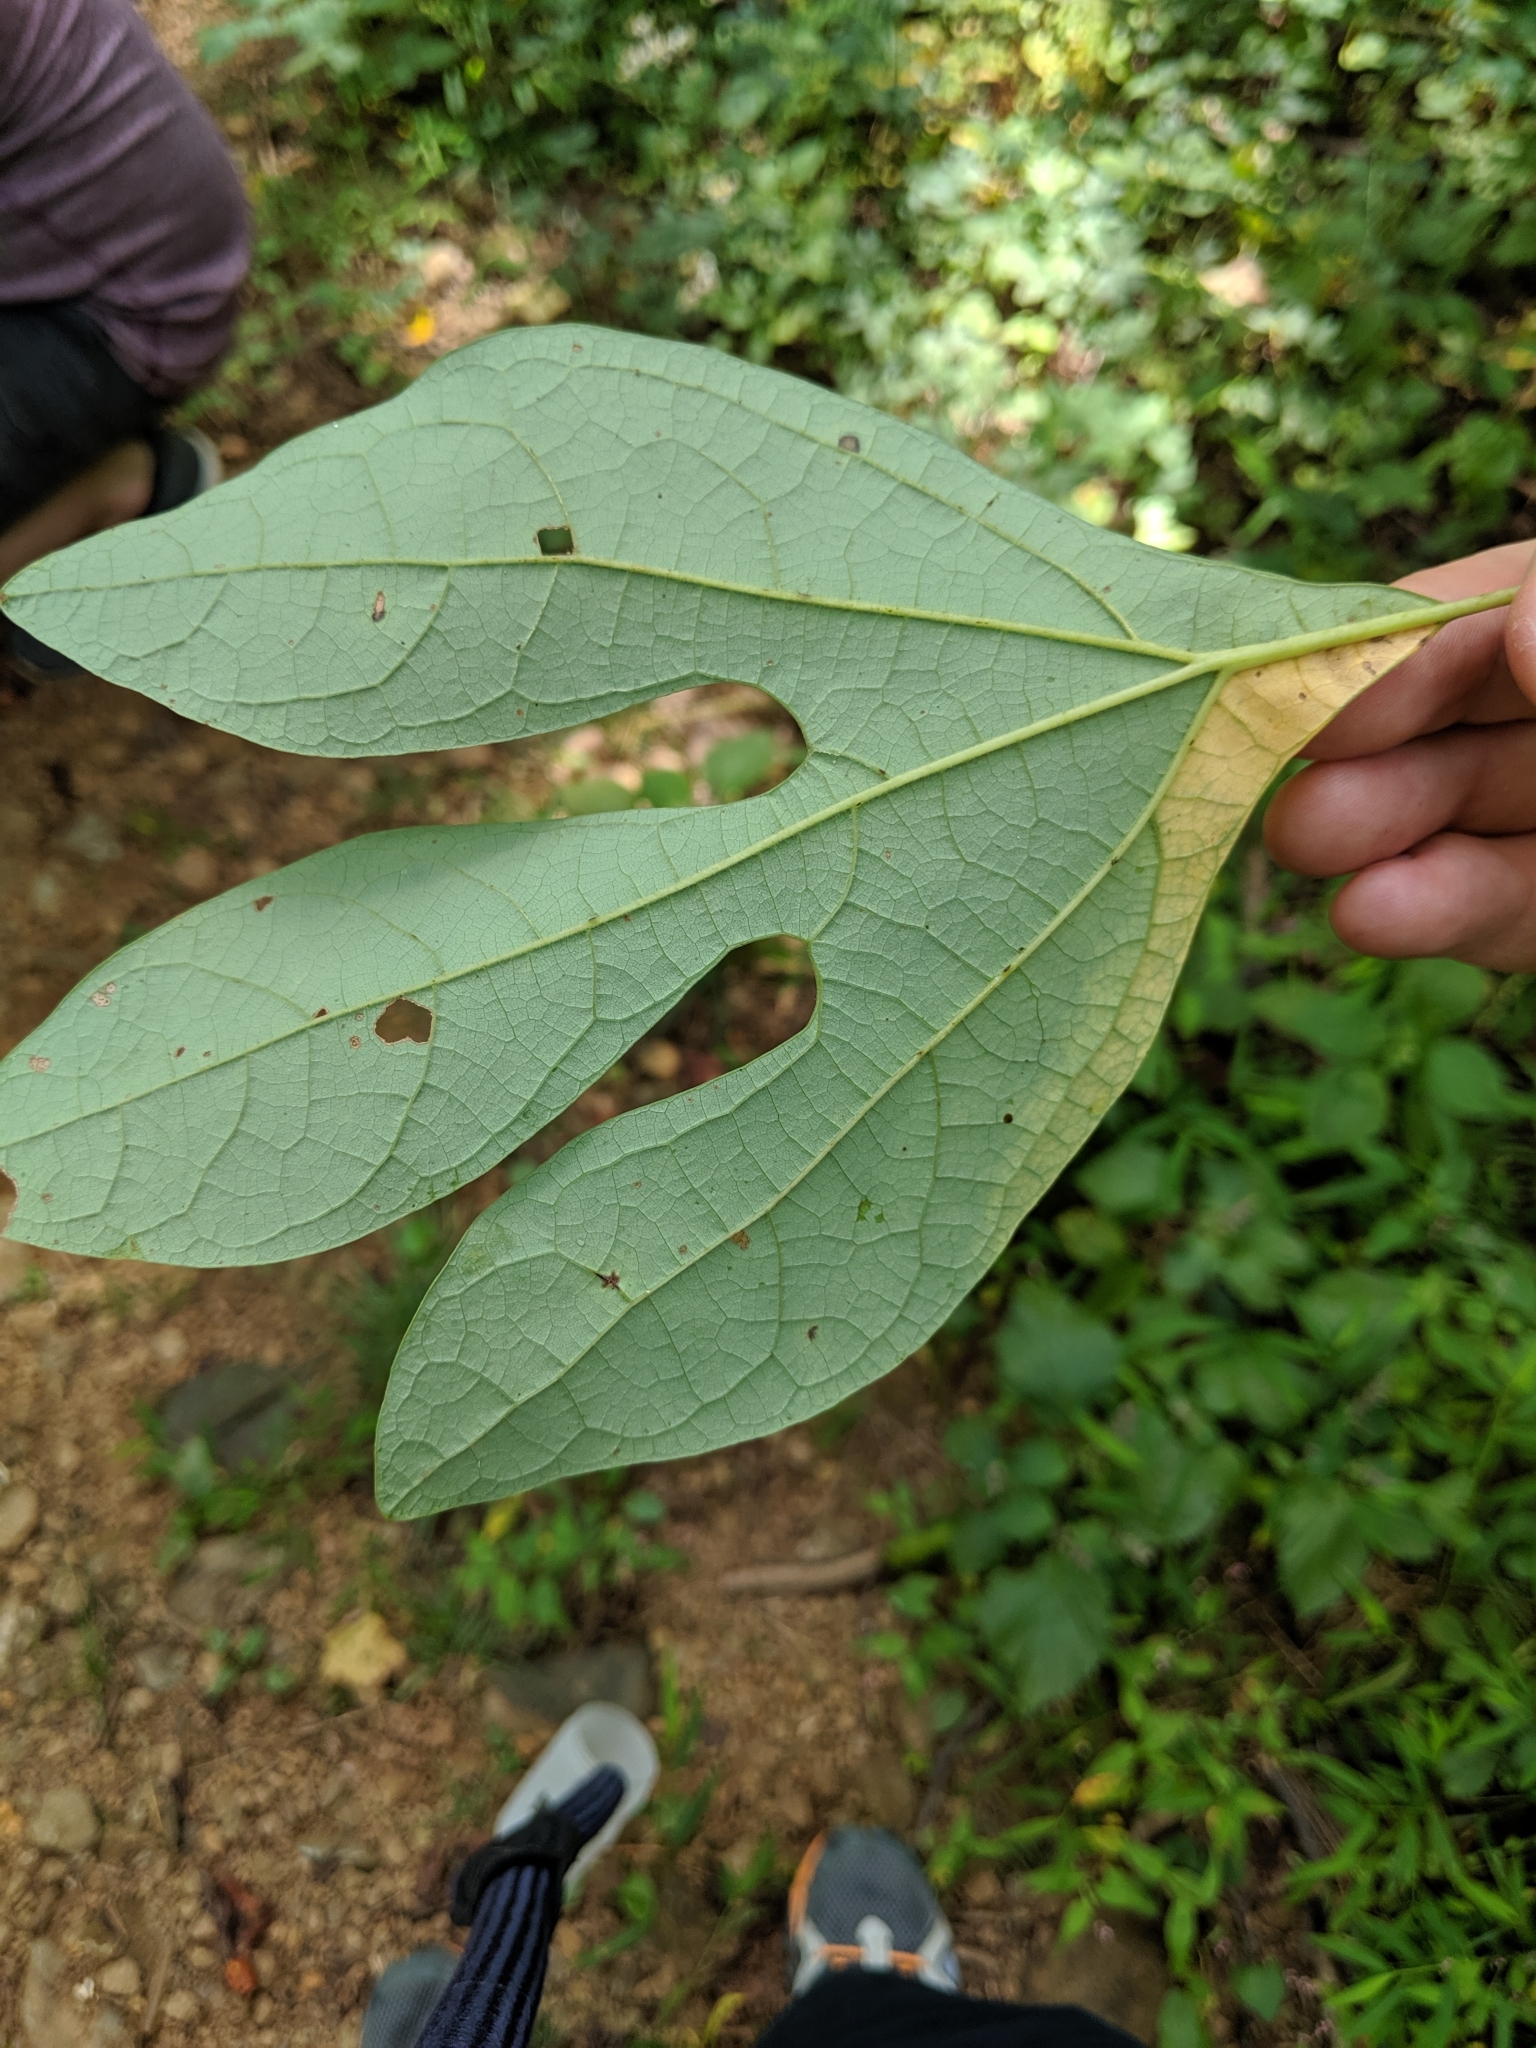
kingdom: Plantae
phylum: Tracheophyta
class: Magnoliopsida
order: Laurales
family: Lauraceae
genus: Sassafras
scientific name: Sassafras albidum
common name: Sassafras
